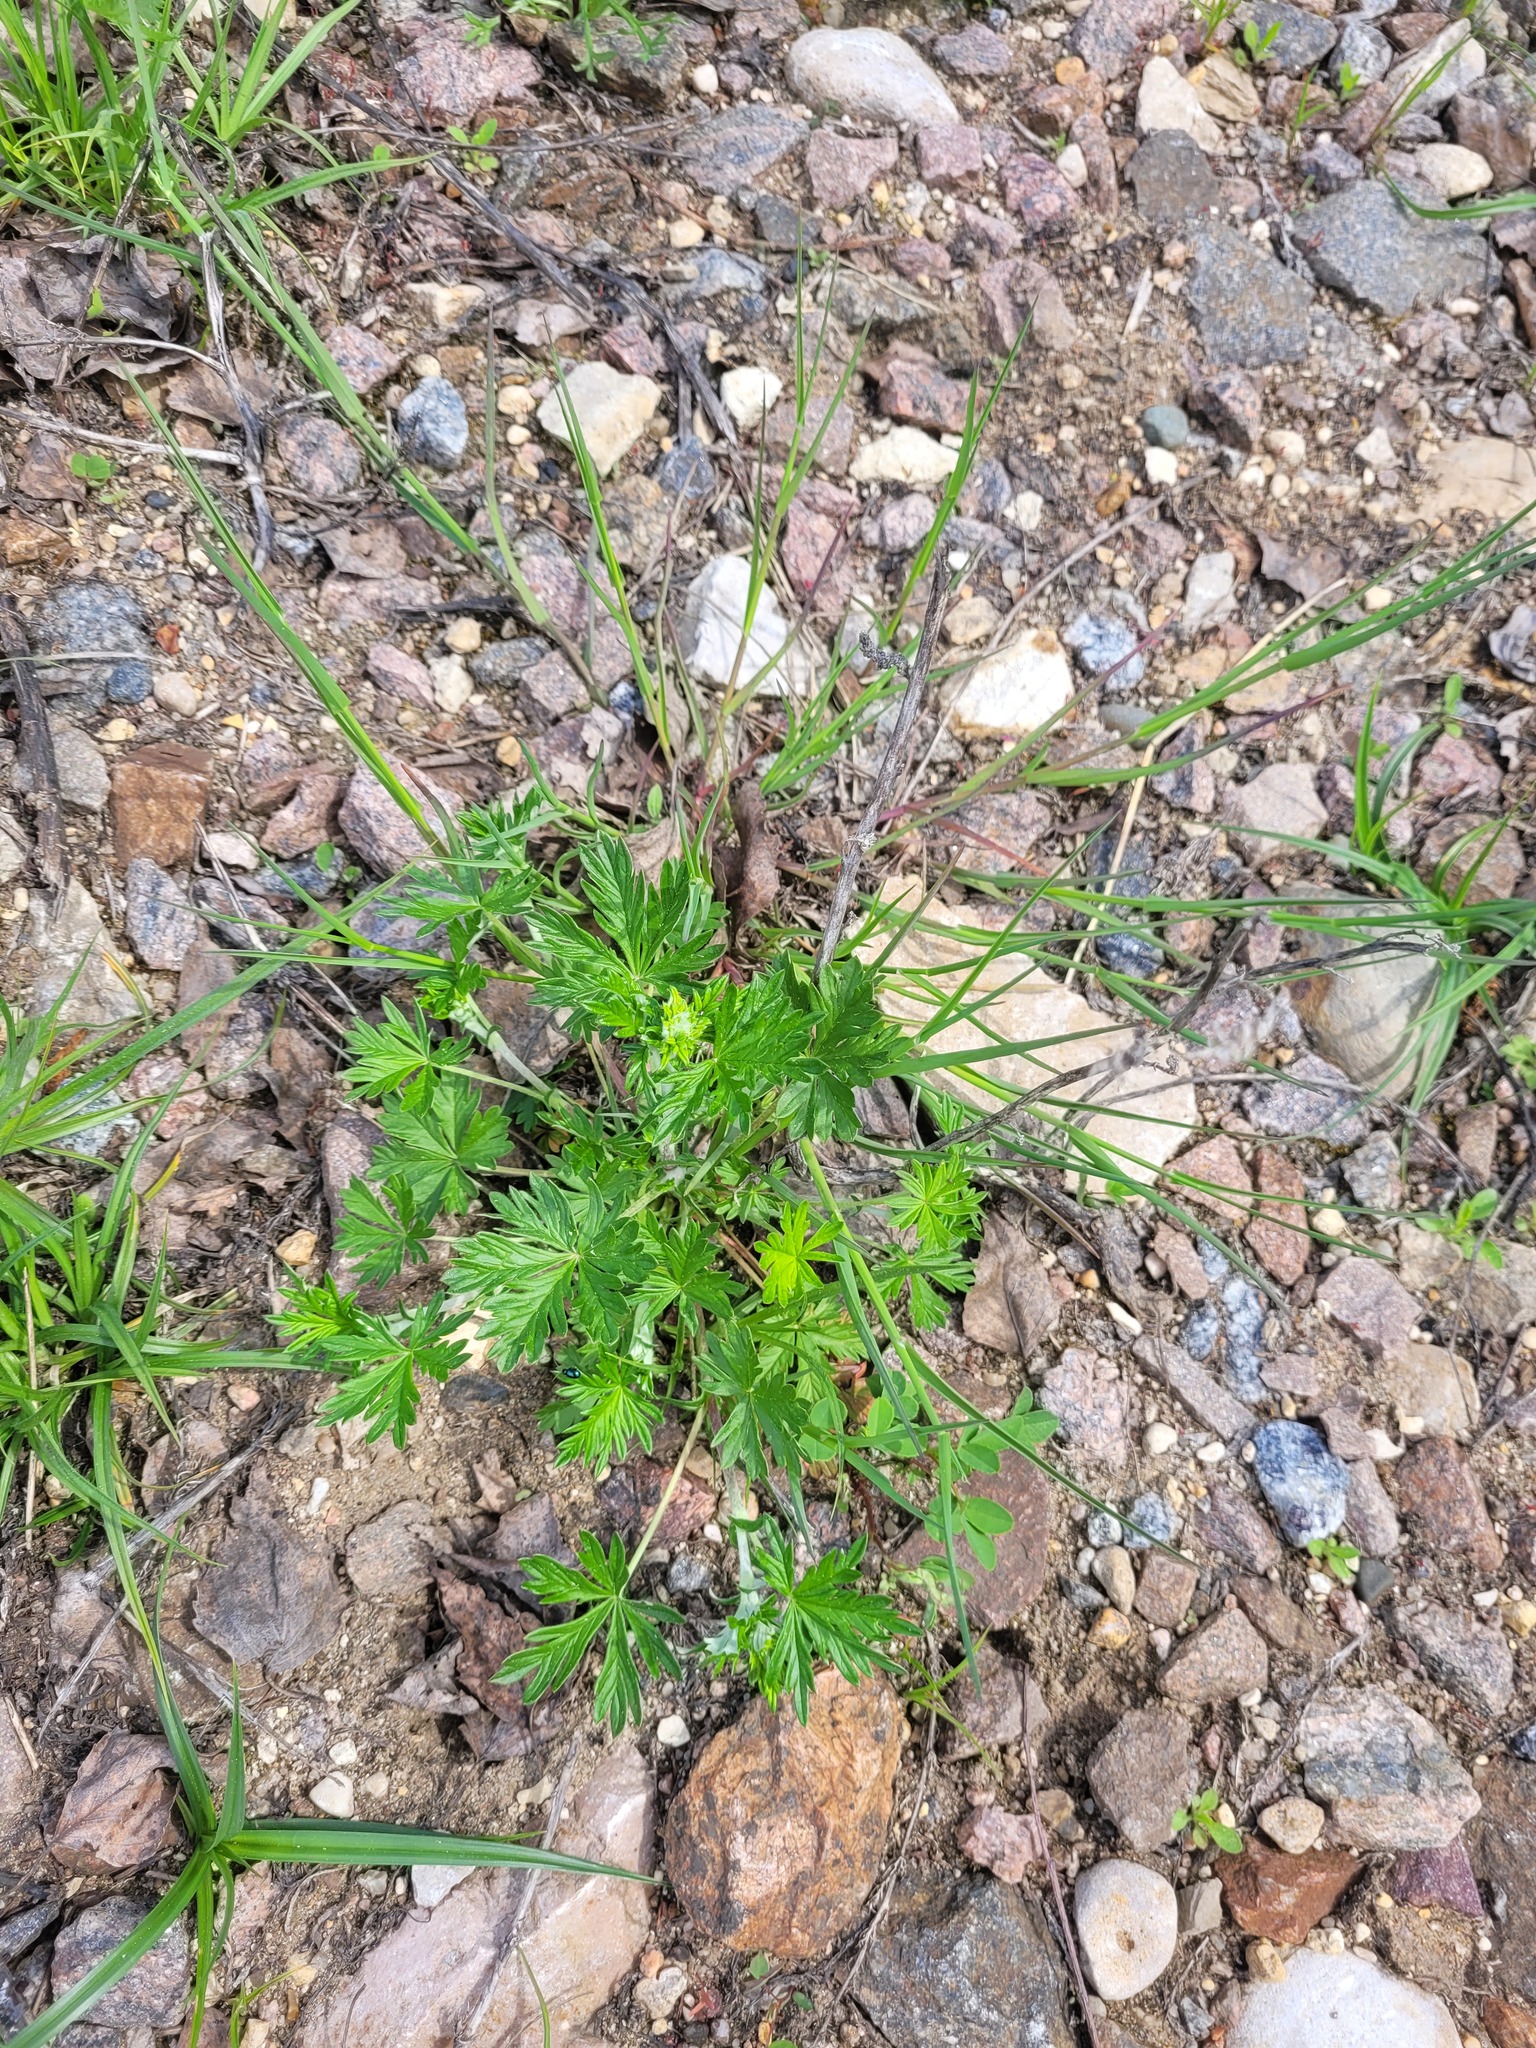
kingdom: Plantae
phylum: Tracheophyta
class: Magnoliopsida
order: Rosales
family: Rosaceae
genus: Potentilla
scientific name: Potentilla argentea
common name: Hoary cinquefoil
